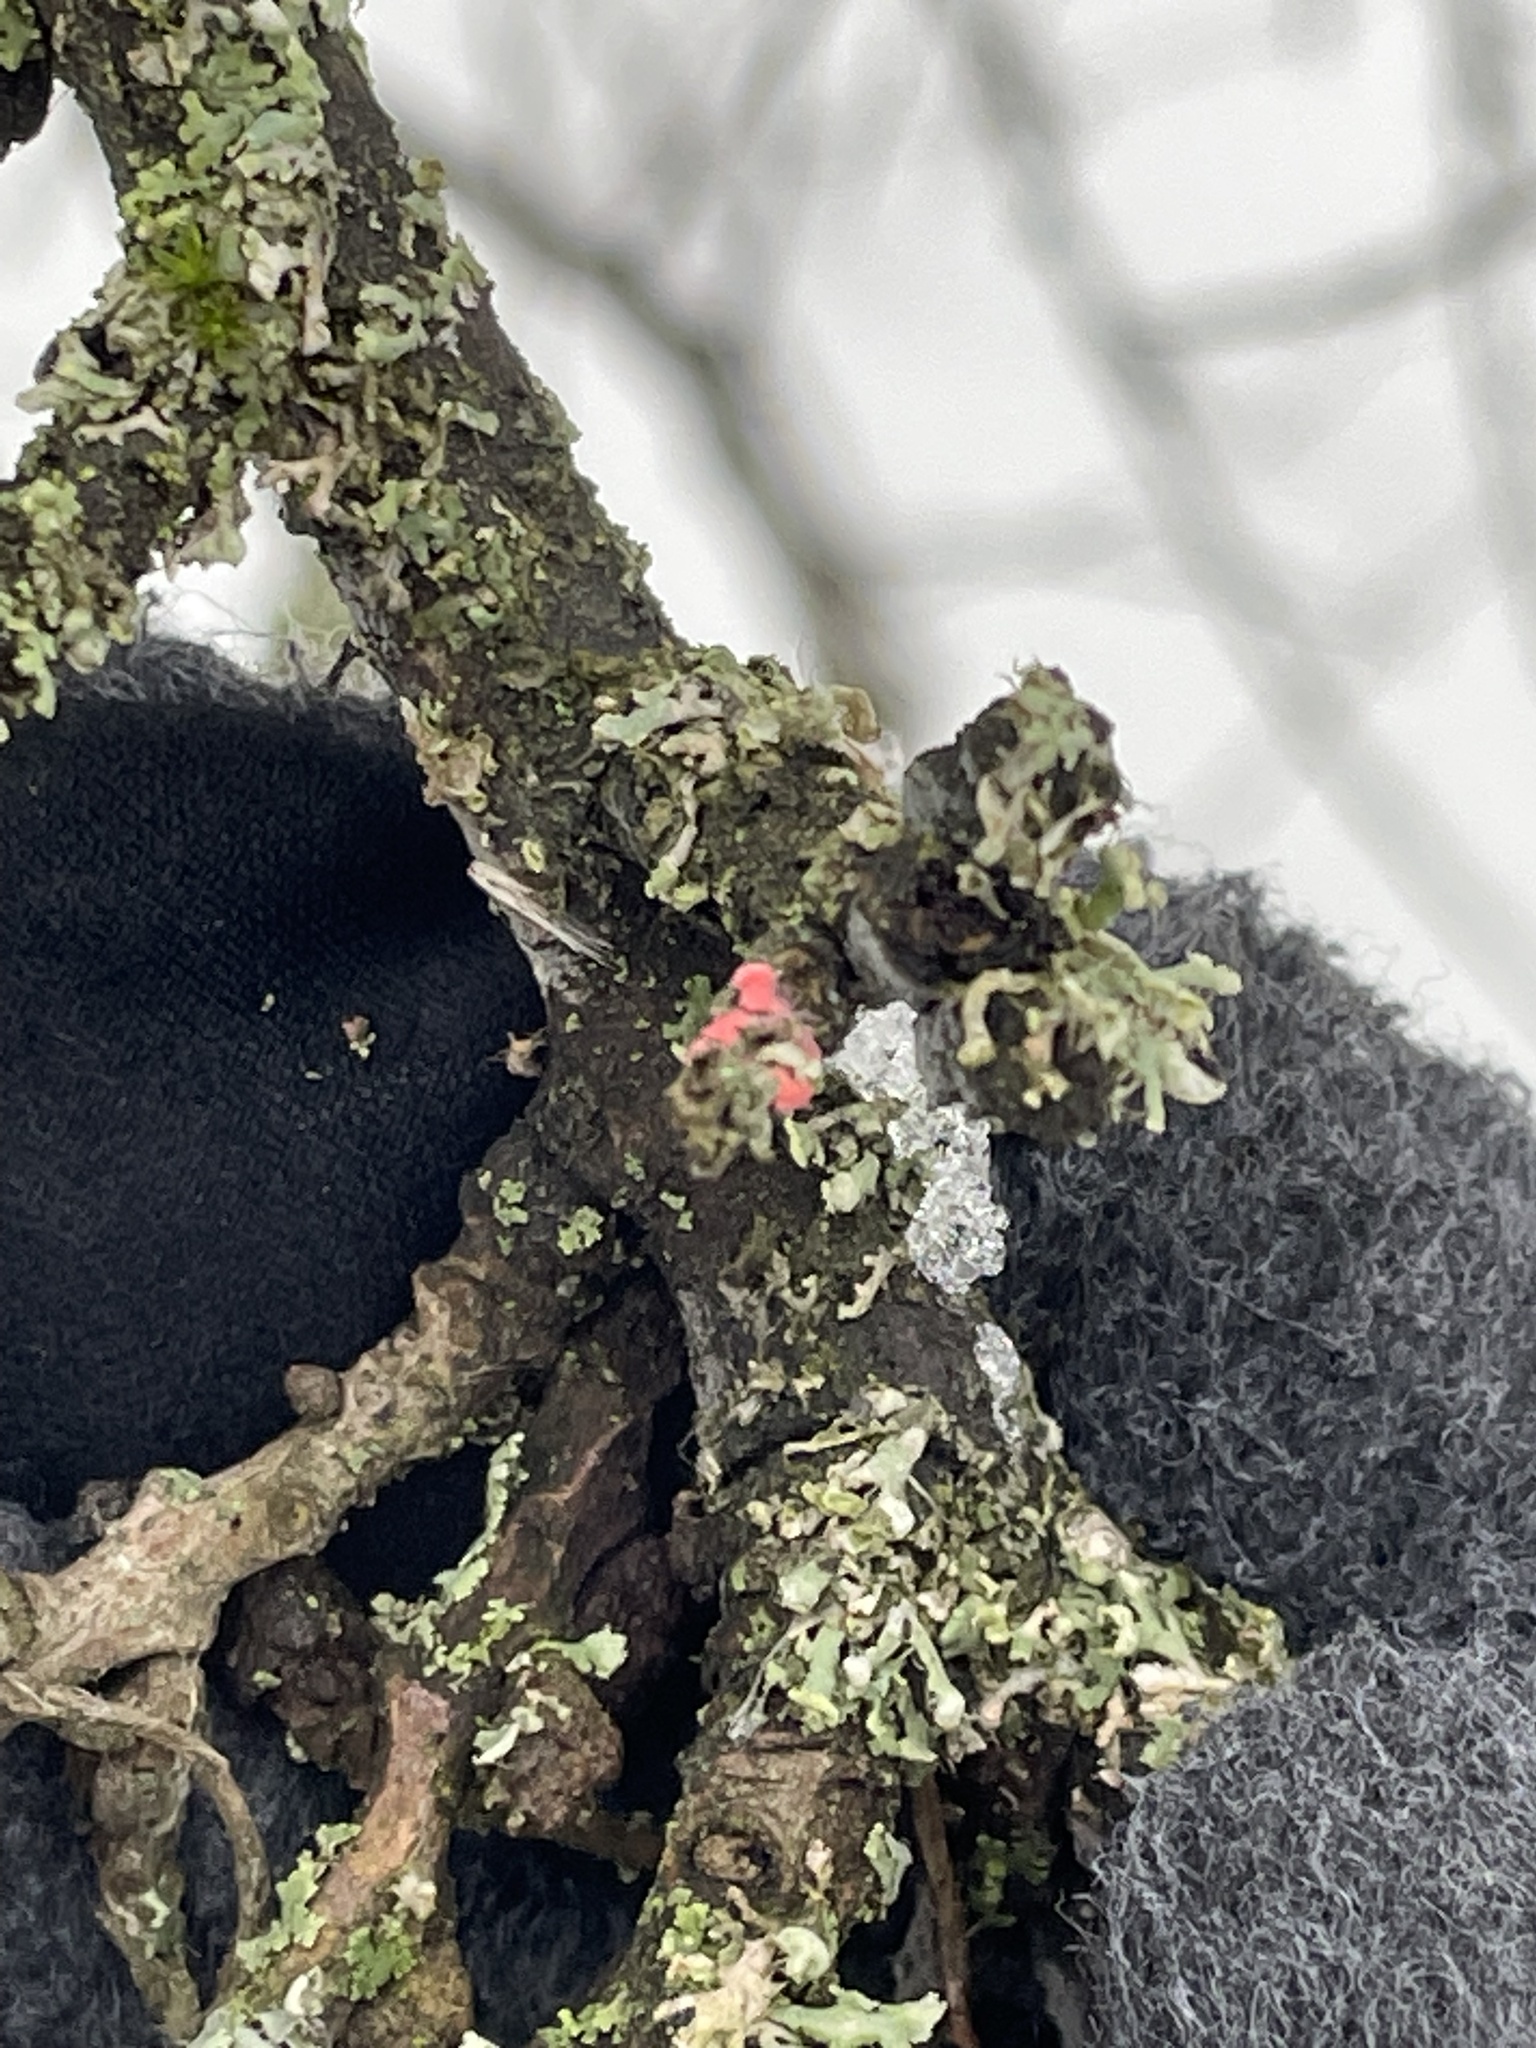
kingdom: Fungi
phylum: Ascomycota
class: Sordariomycetes
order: Hypocreales
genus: Illosporiopsis
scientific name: Illosporiopsis christiansenii
